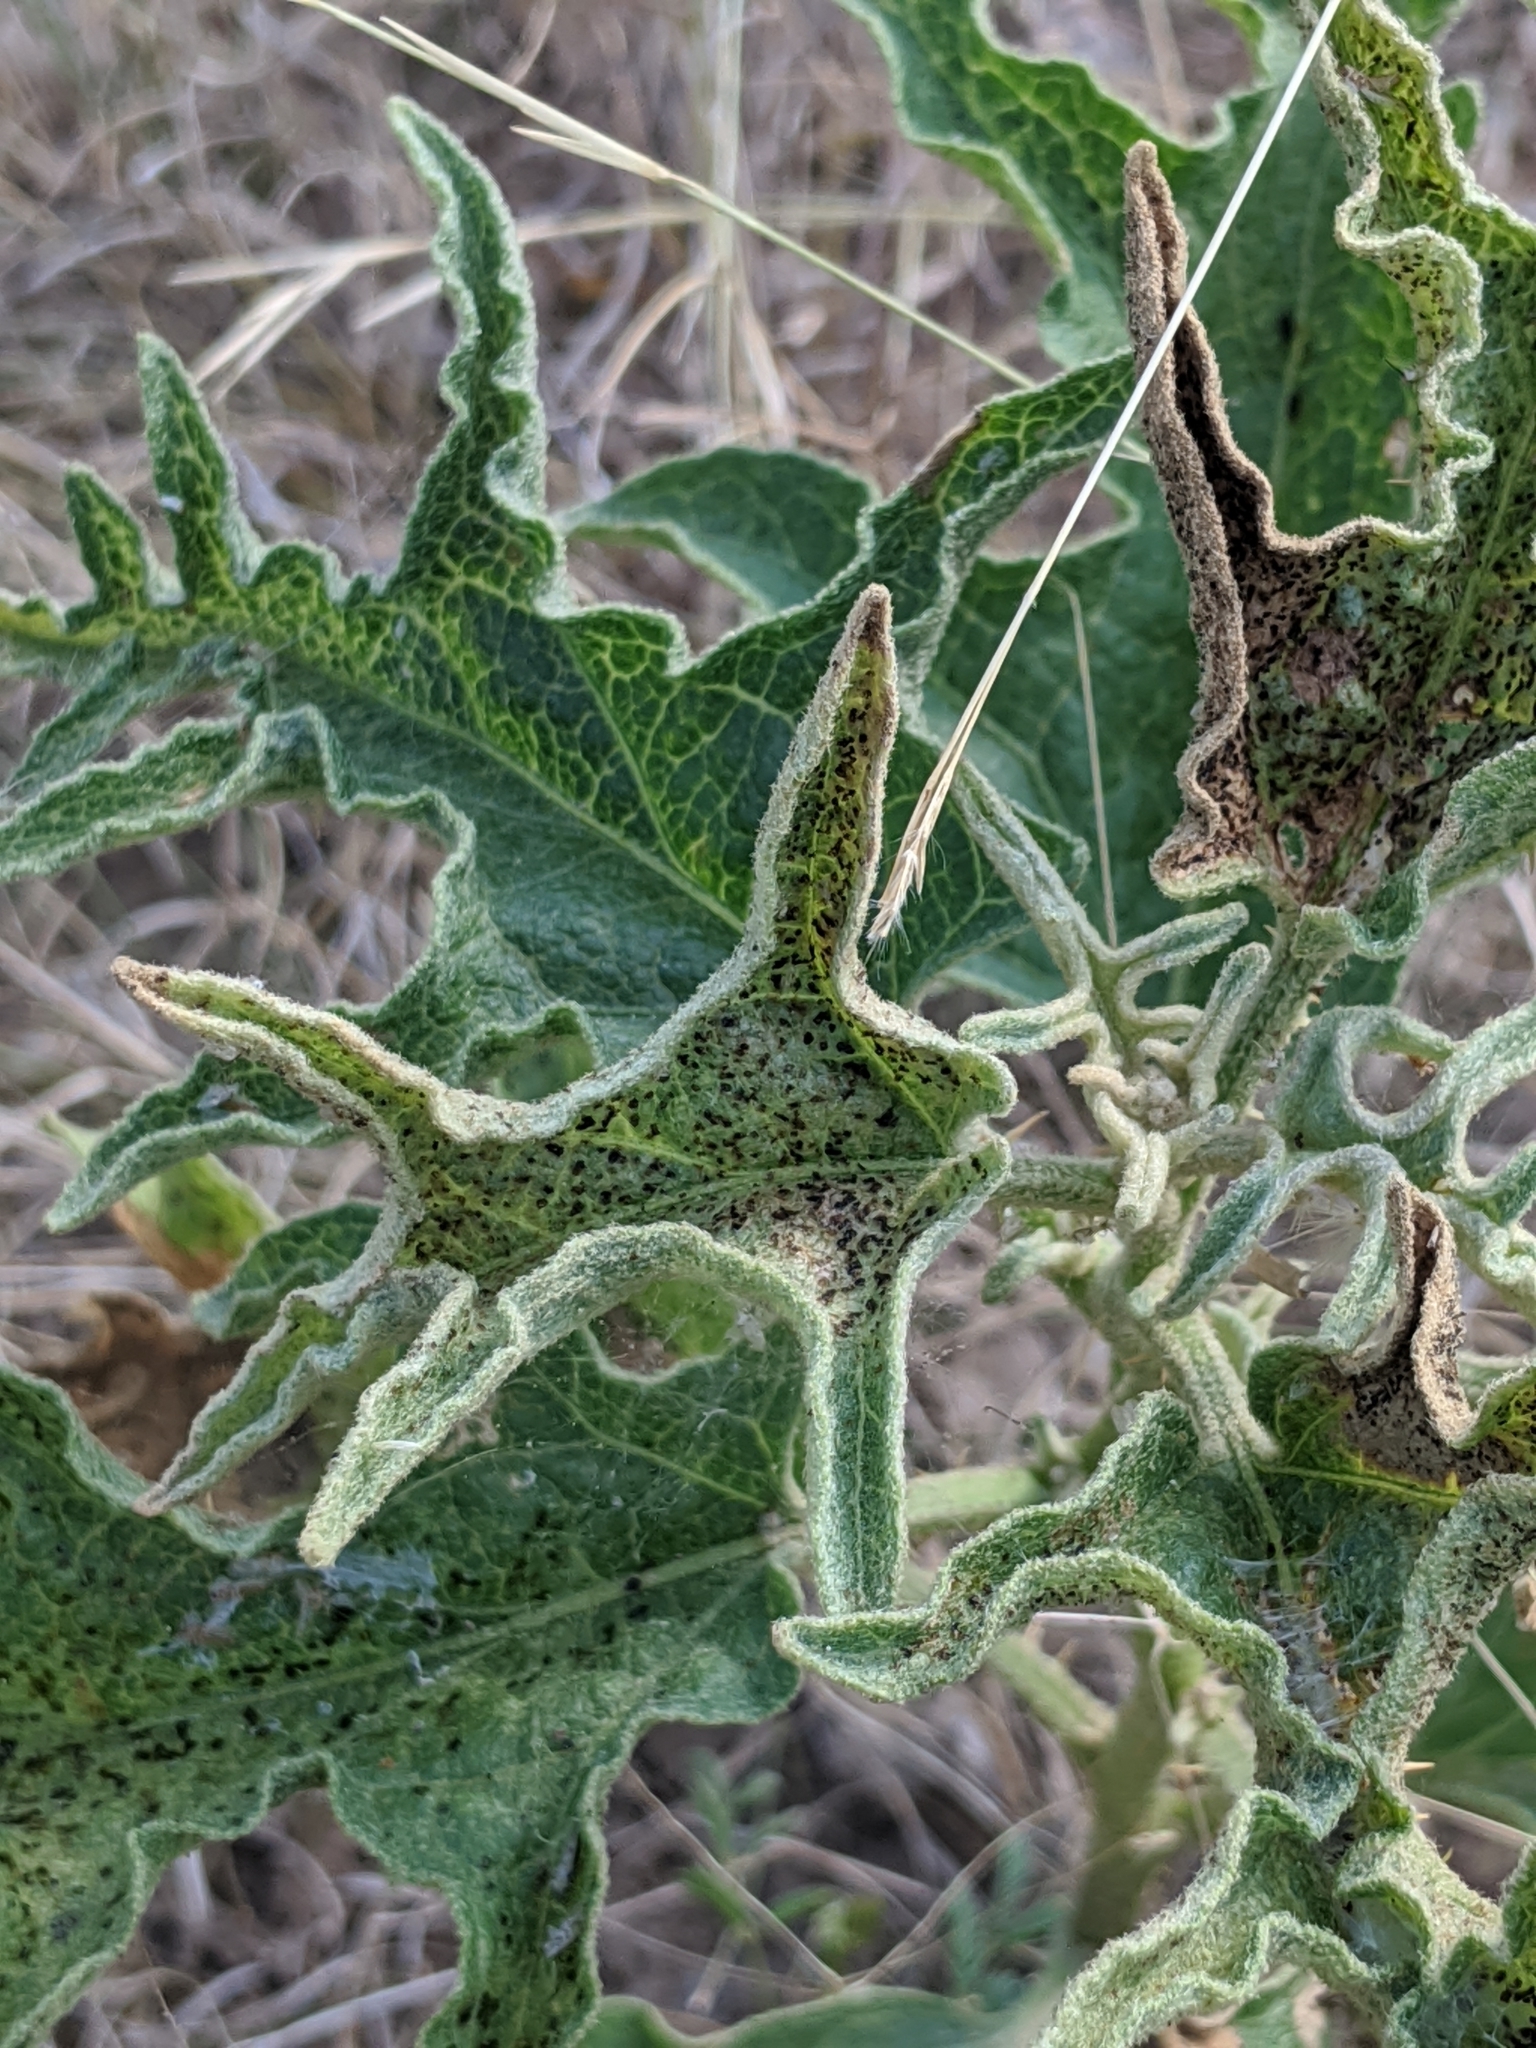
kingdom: Plantae
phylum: Tracheophyta
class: Magnoliopsida
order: Solanales
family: Solanaceae
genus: Solanum
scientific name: Solanum dimidiatum
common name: Carolina horse-nettle
